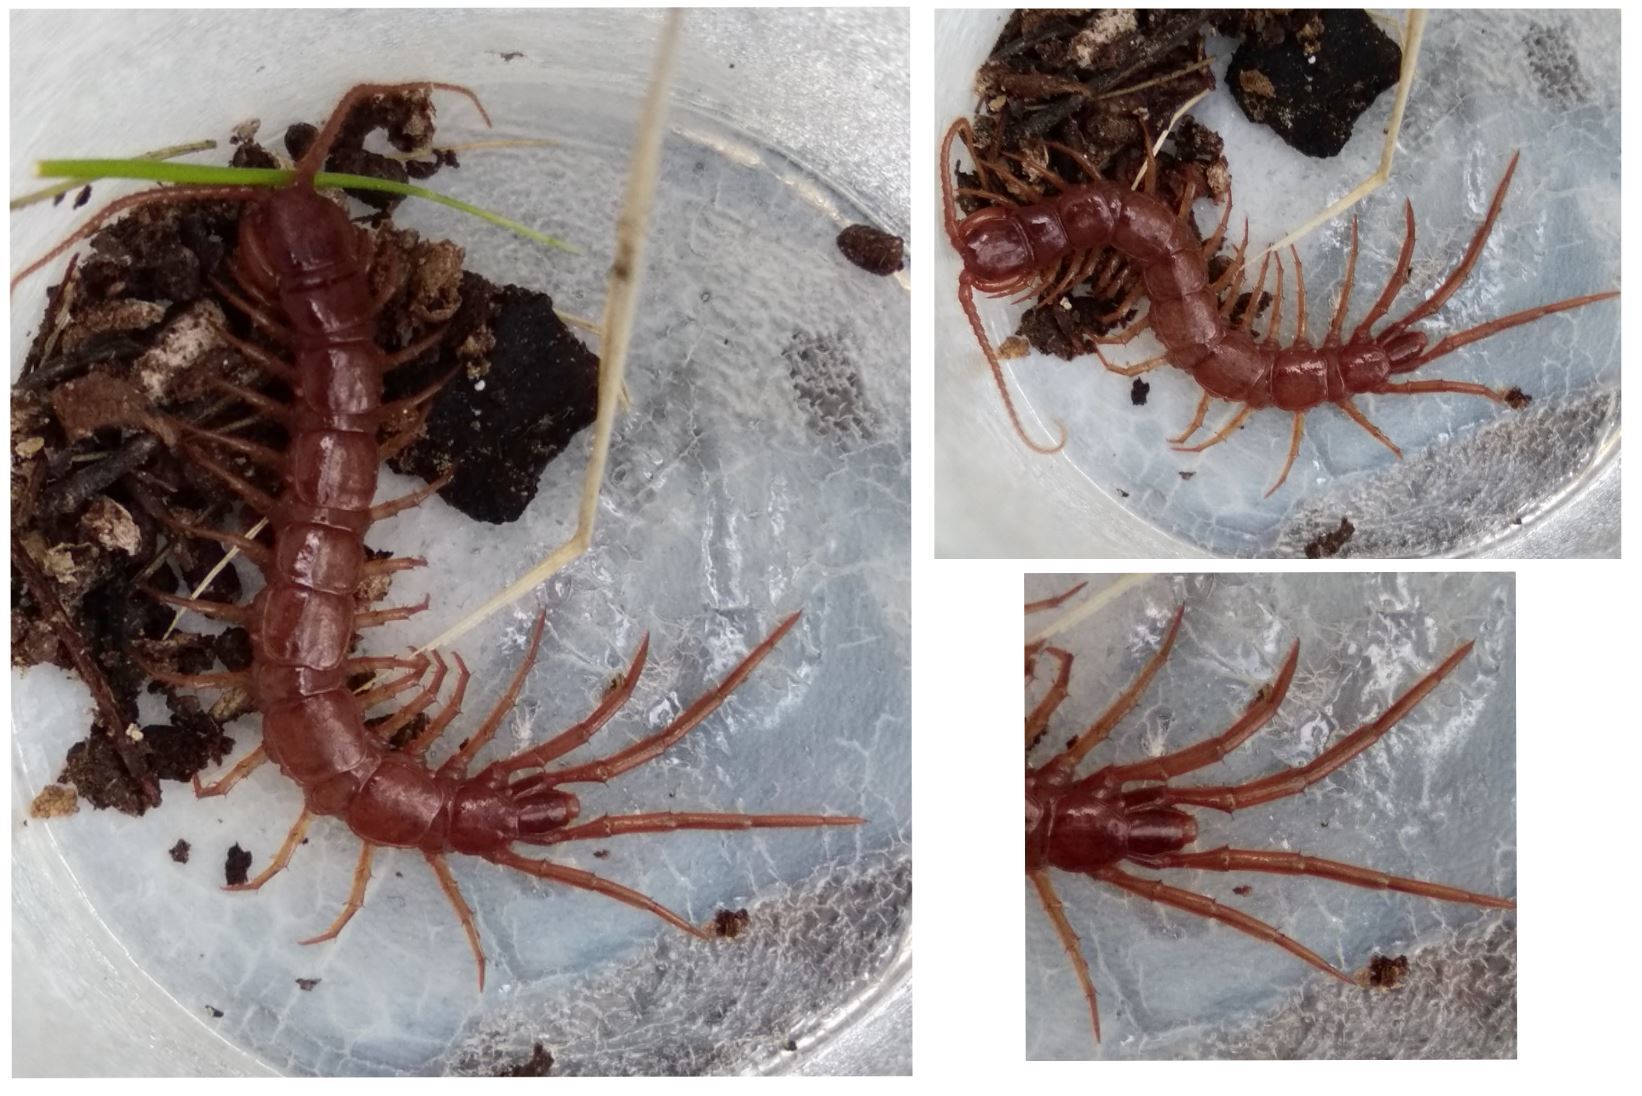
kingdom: Animalia
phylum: Arthropoda
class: Chilopoda
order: Lithobiomorpha
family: Lithobiidae
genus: Lithobius
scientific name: Lithobius pilicornis
